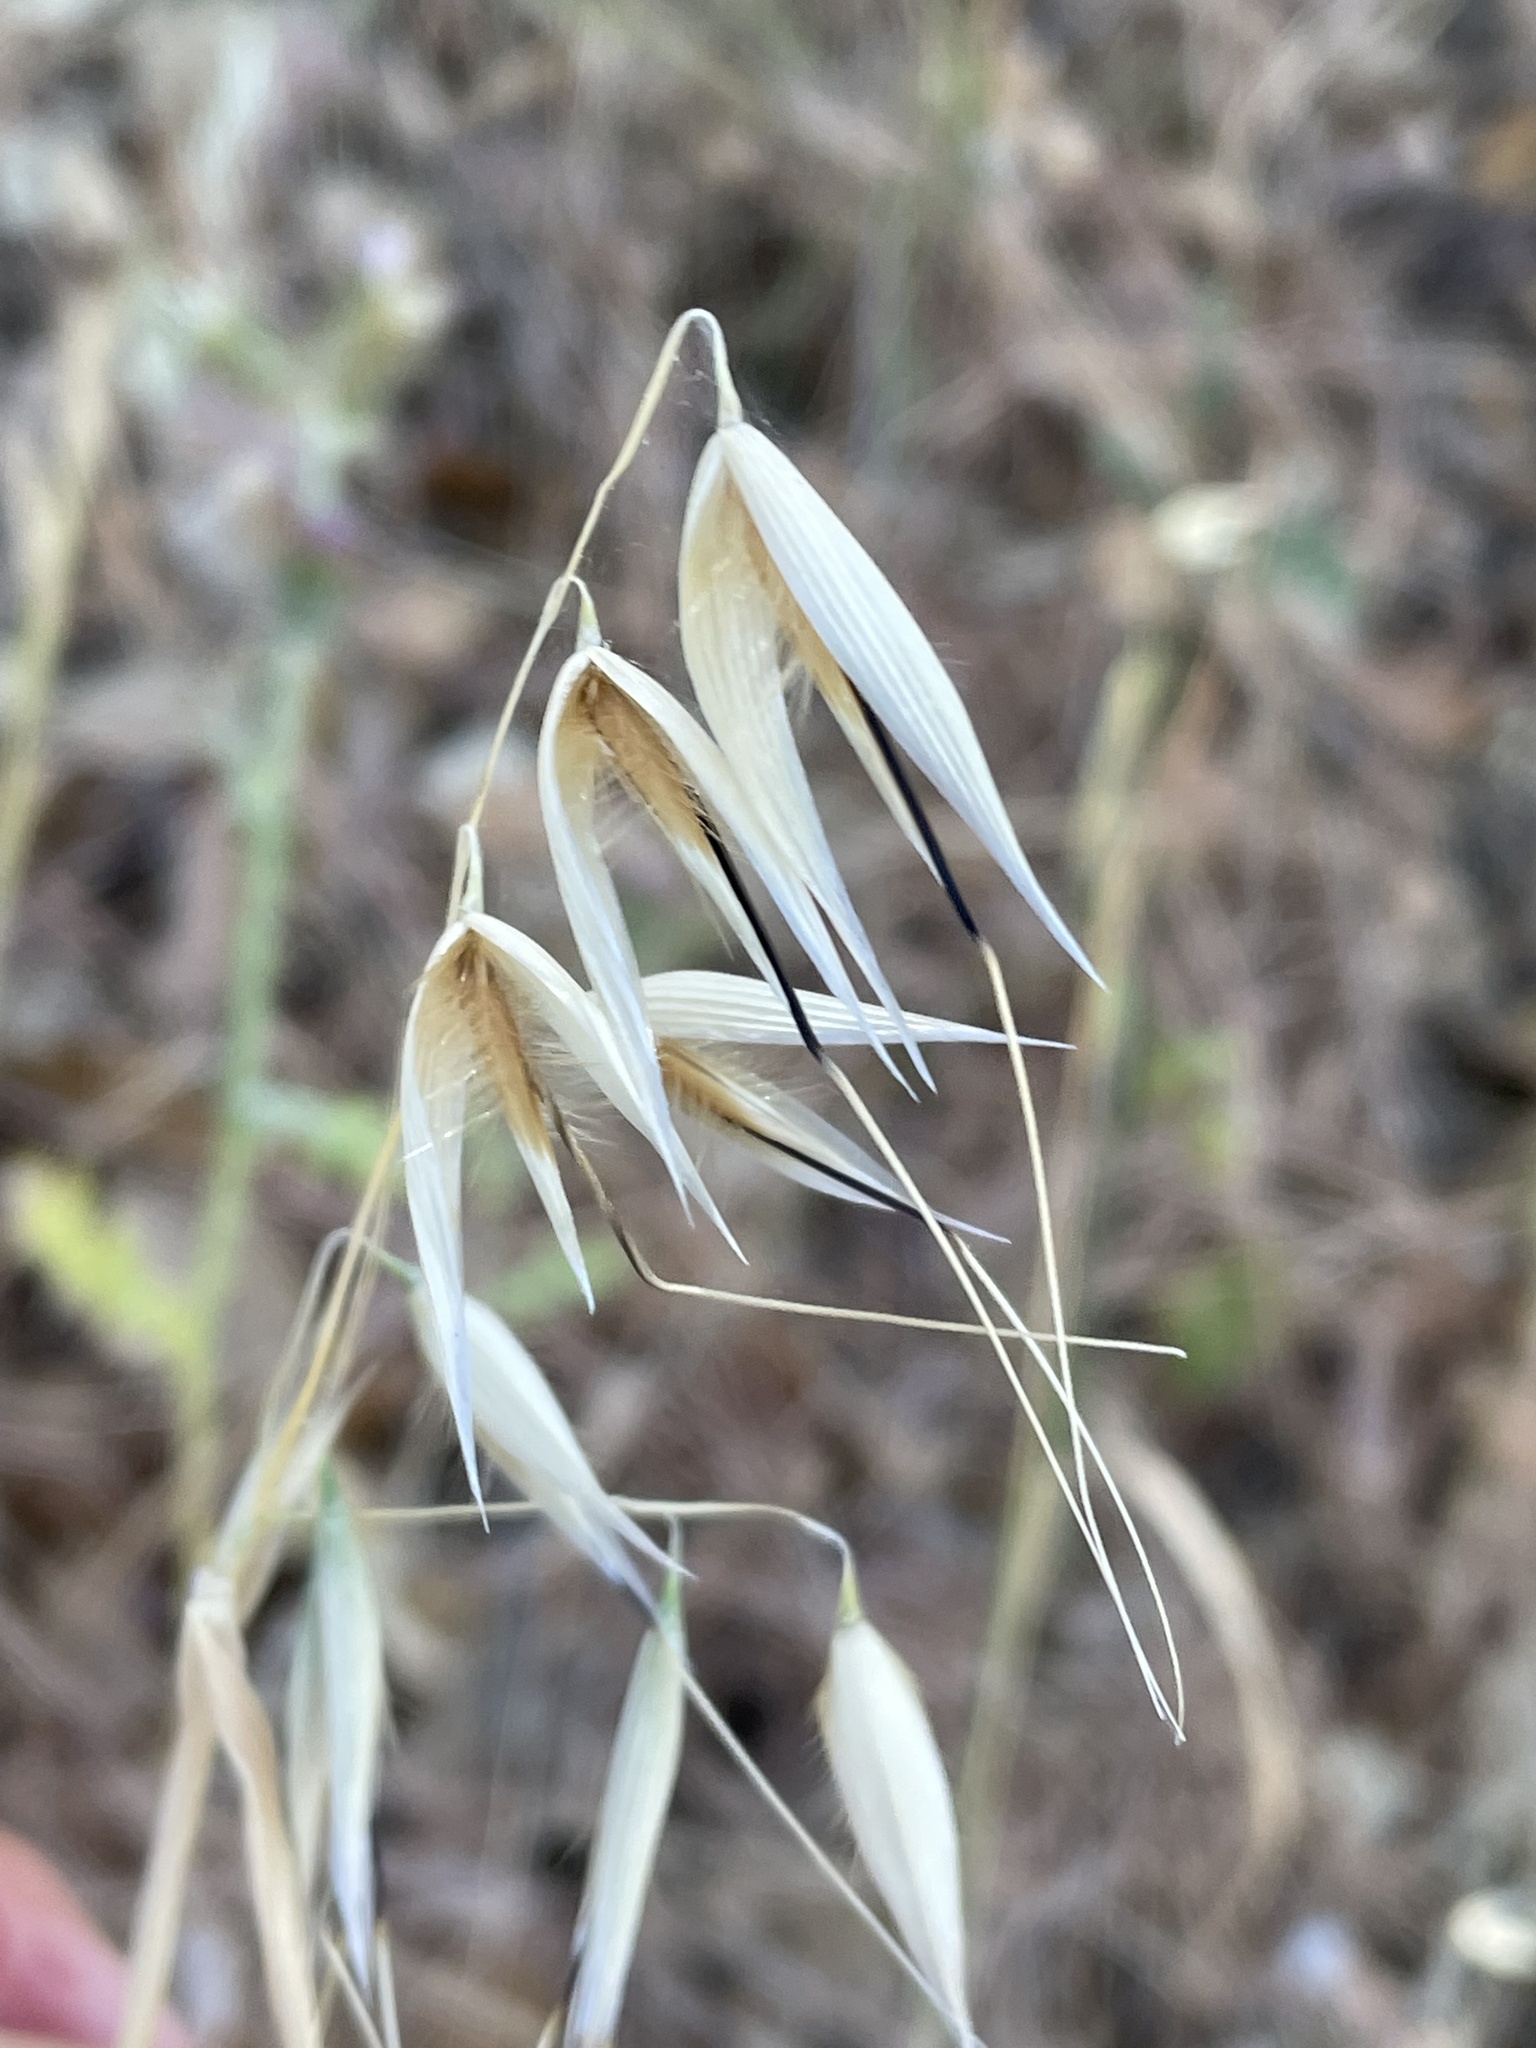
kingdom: Plantae
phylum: Tracheophyta
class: Liliopsida
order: Poales
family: Poaceae
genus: Avena
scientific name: Avena barbata
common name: Slender oat
